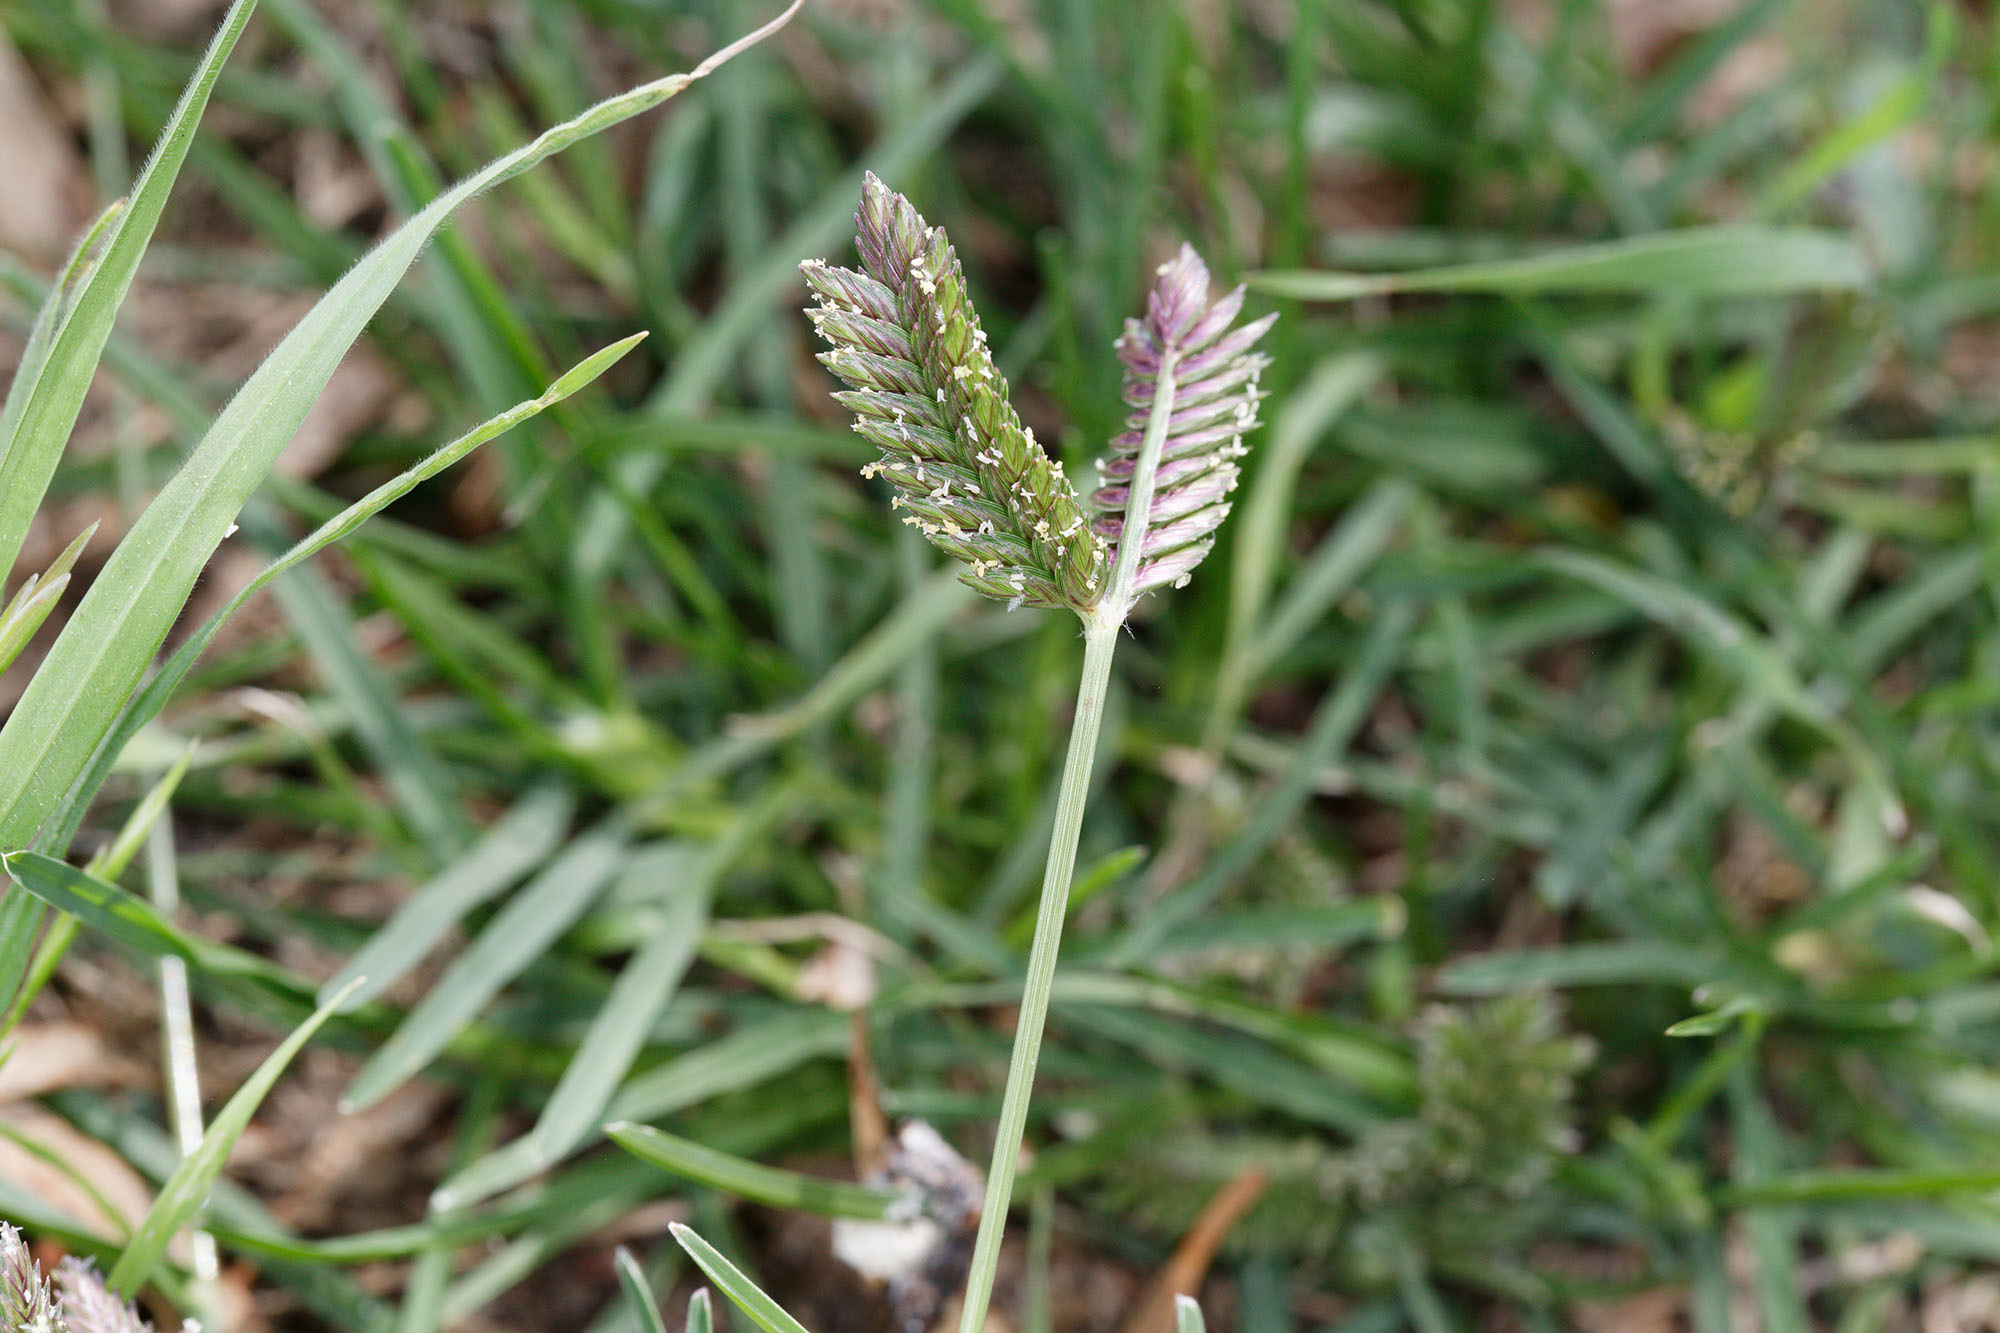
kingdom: Plantae
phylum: Tracheophyta
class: Liliopsida
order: Poales
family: Poaceae
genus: Eleusine
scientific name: Eleusine tristachya
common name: American yard-grass
